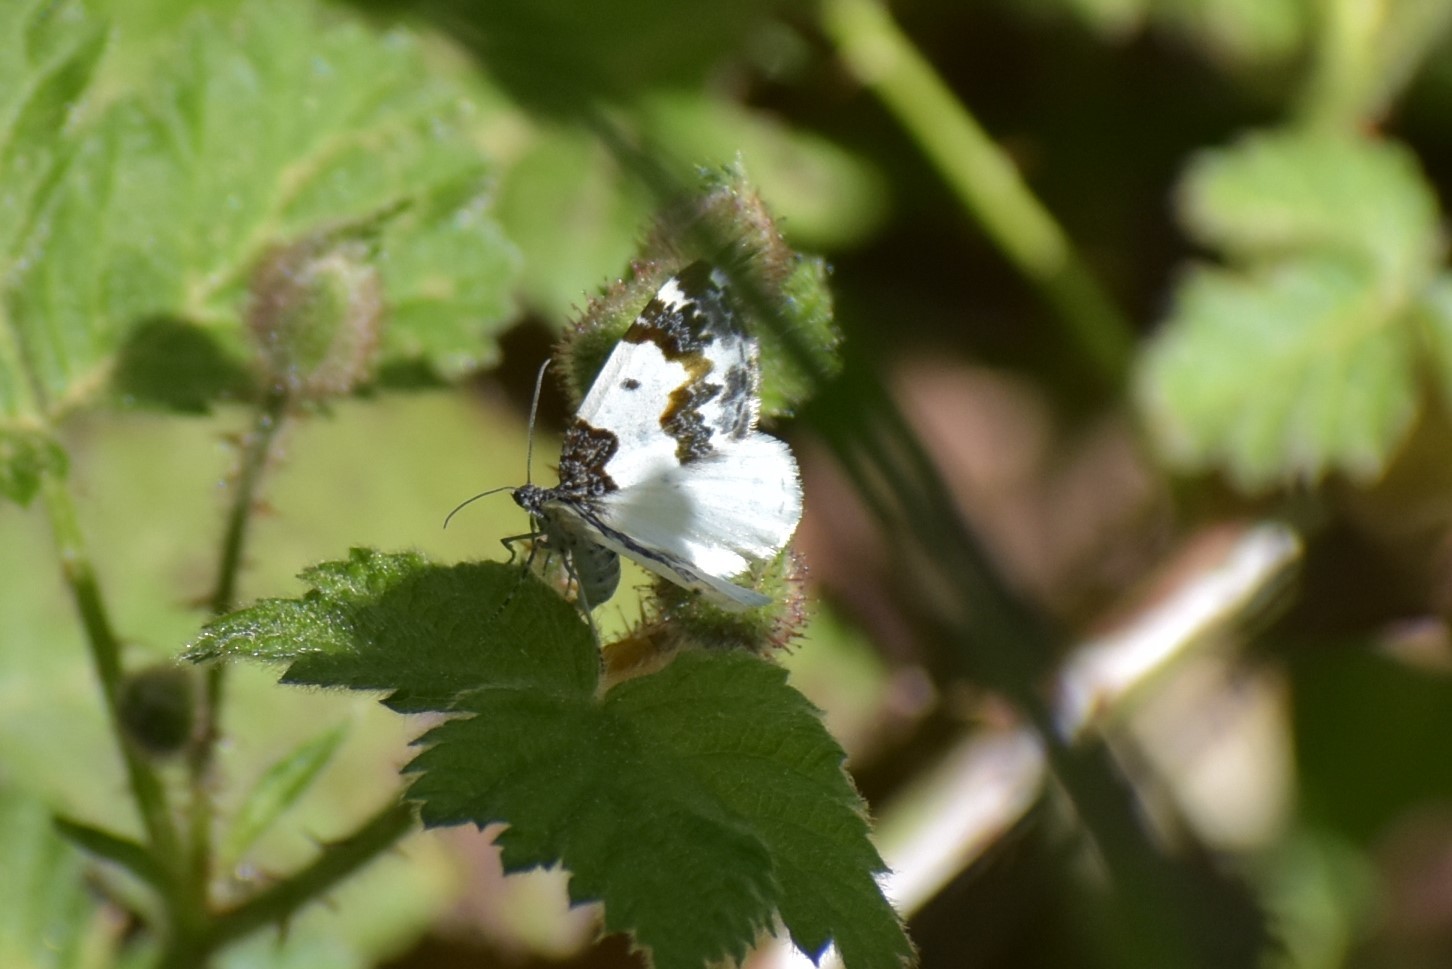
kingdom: Animalia
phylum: Arthropoda
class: Insecta
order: Lepidoptera
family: Geometridae
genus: Mesoleuca
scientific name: Mesoleuca gratulata
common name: Half-white carpet moth
